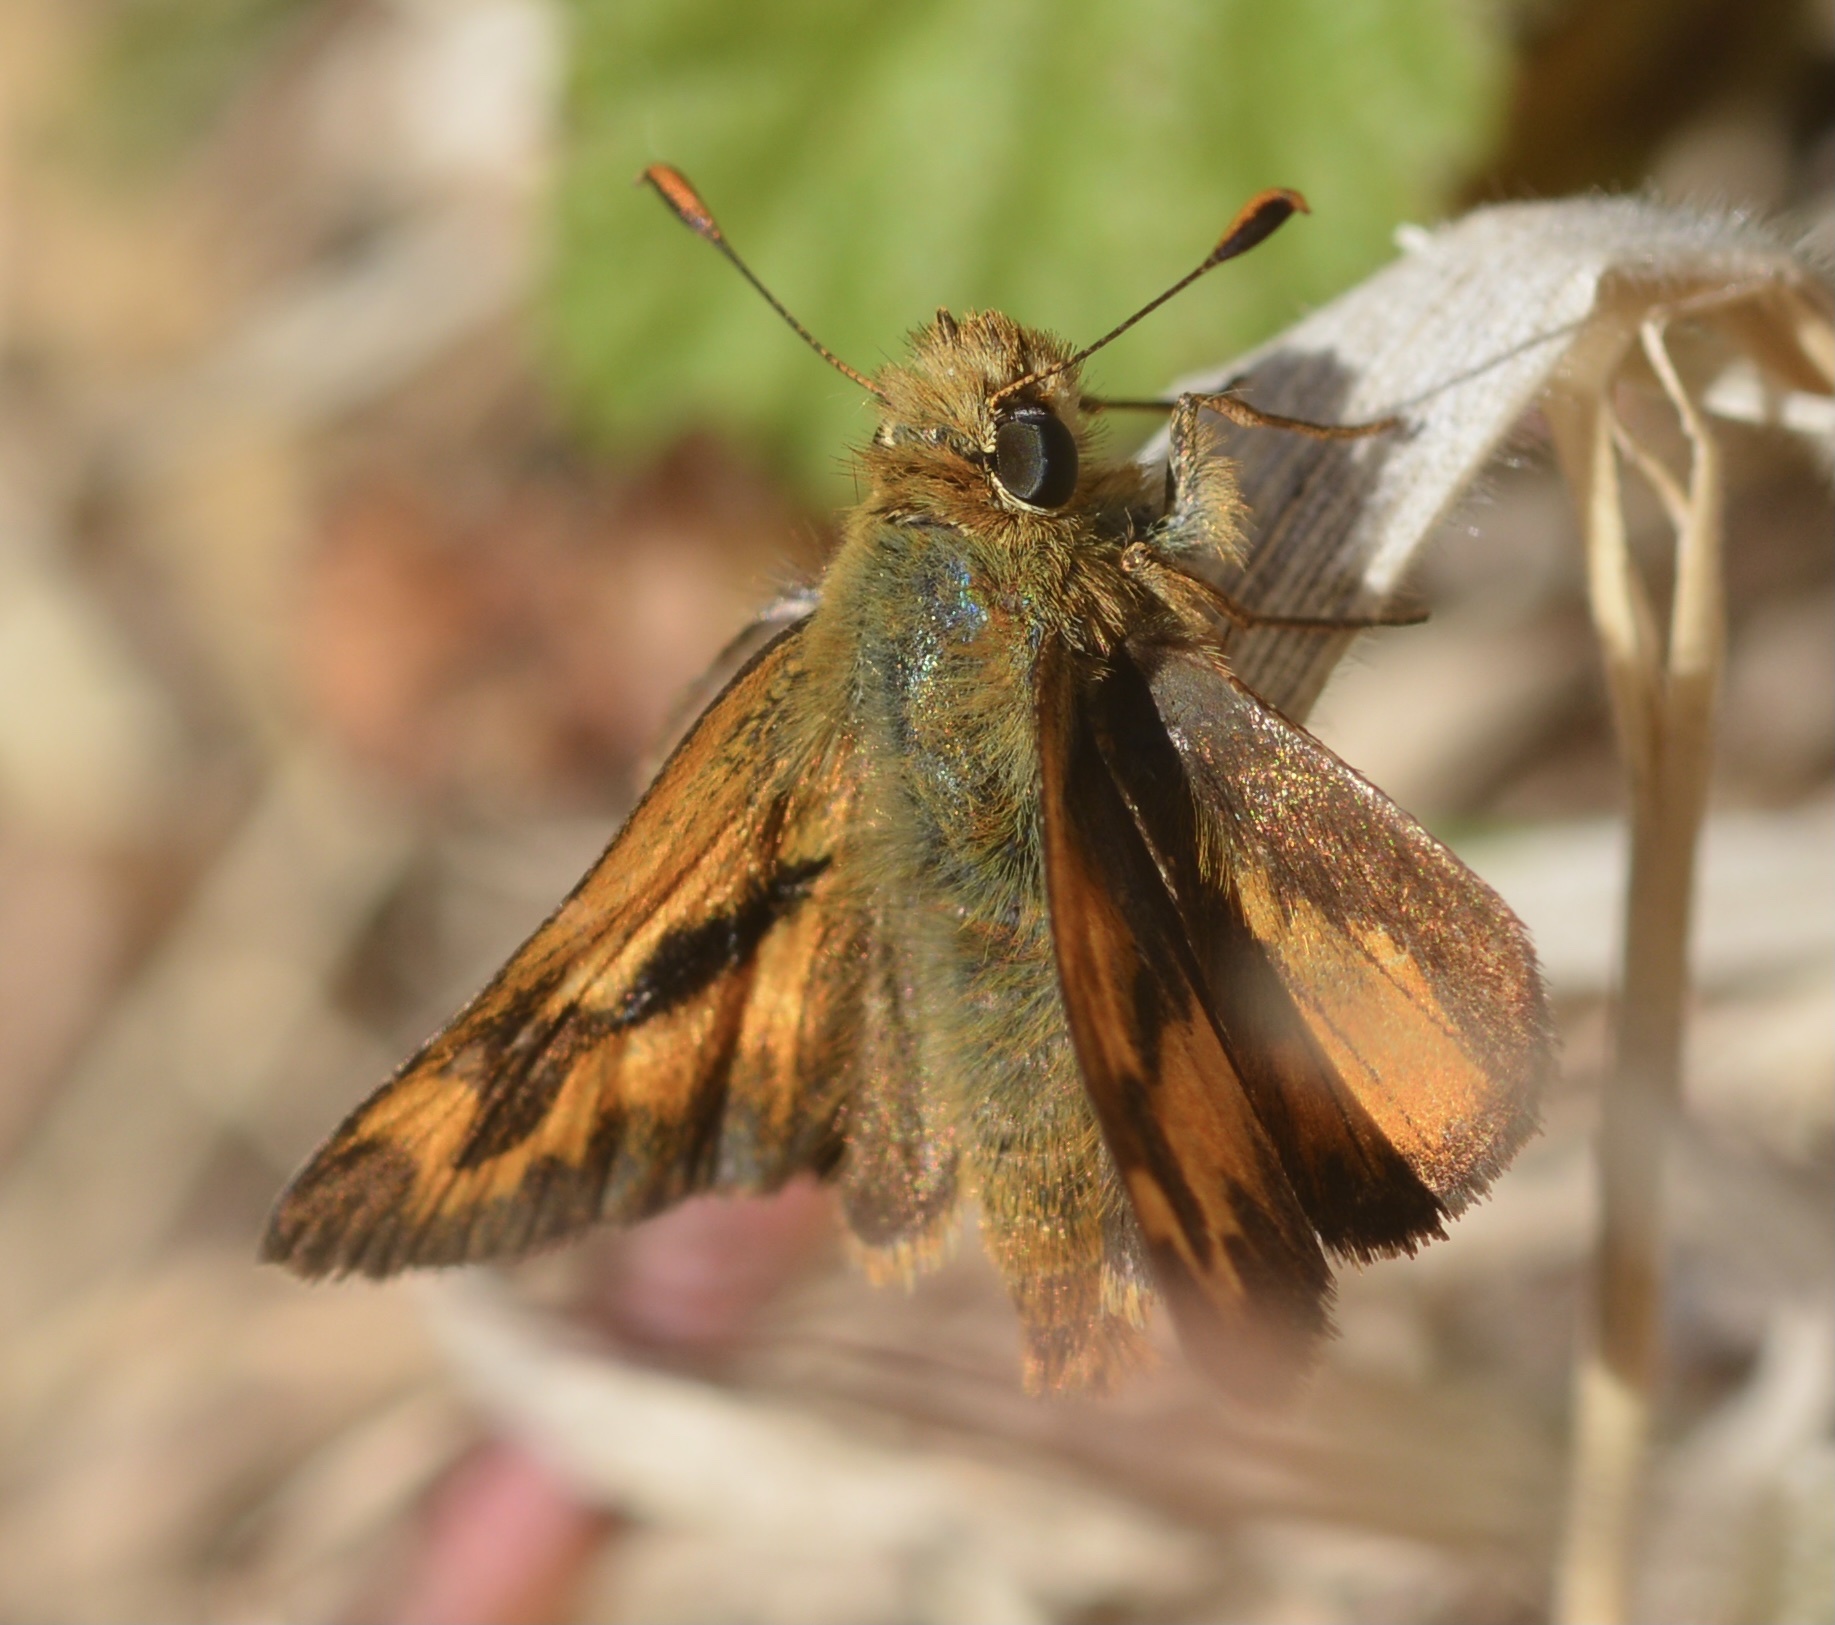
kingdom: Animalia
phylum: Arthropoda
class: Insecta
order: Lepidoptera
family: Hesperiidae
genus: Ochlodes
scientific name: Ochlodes sylvanoides
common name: Woodland skipper
